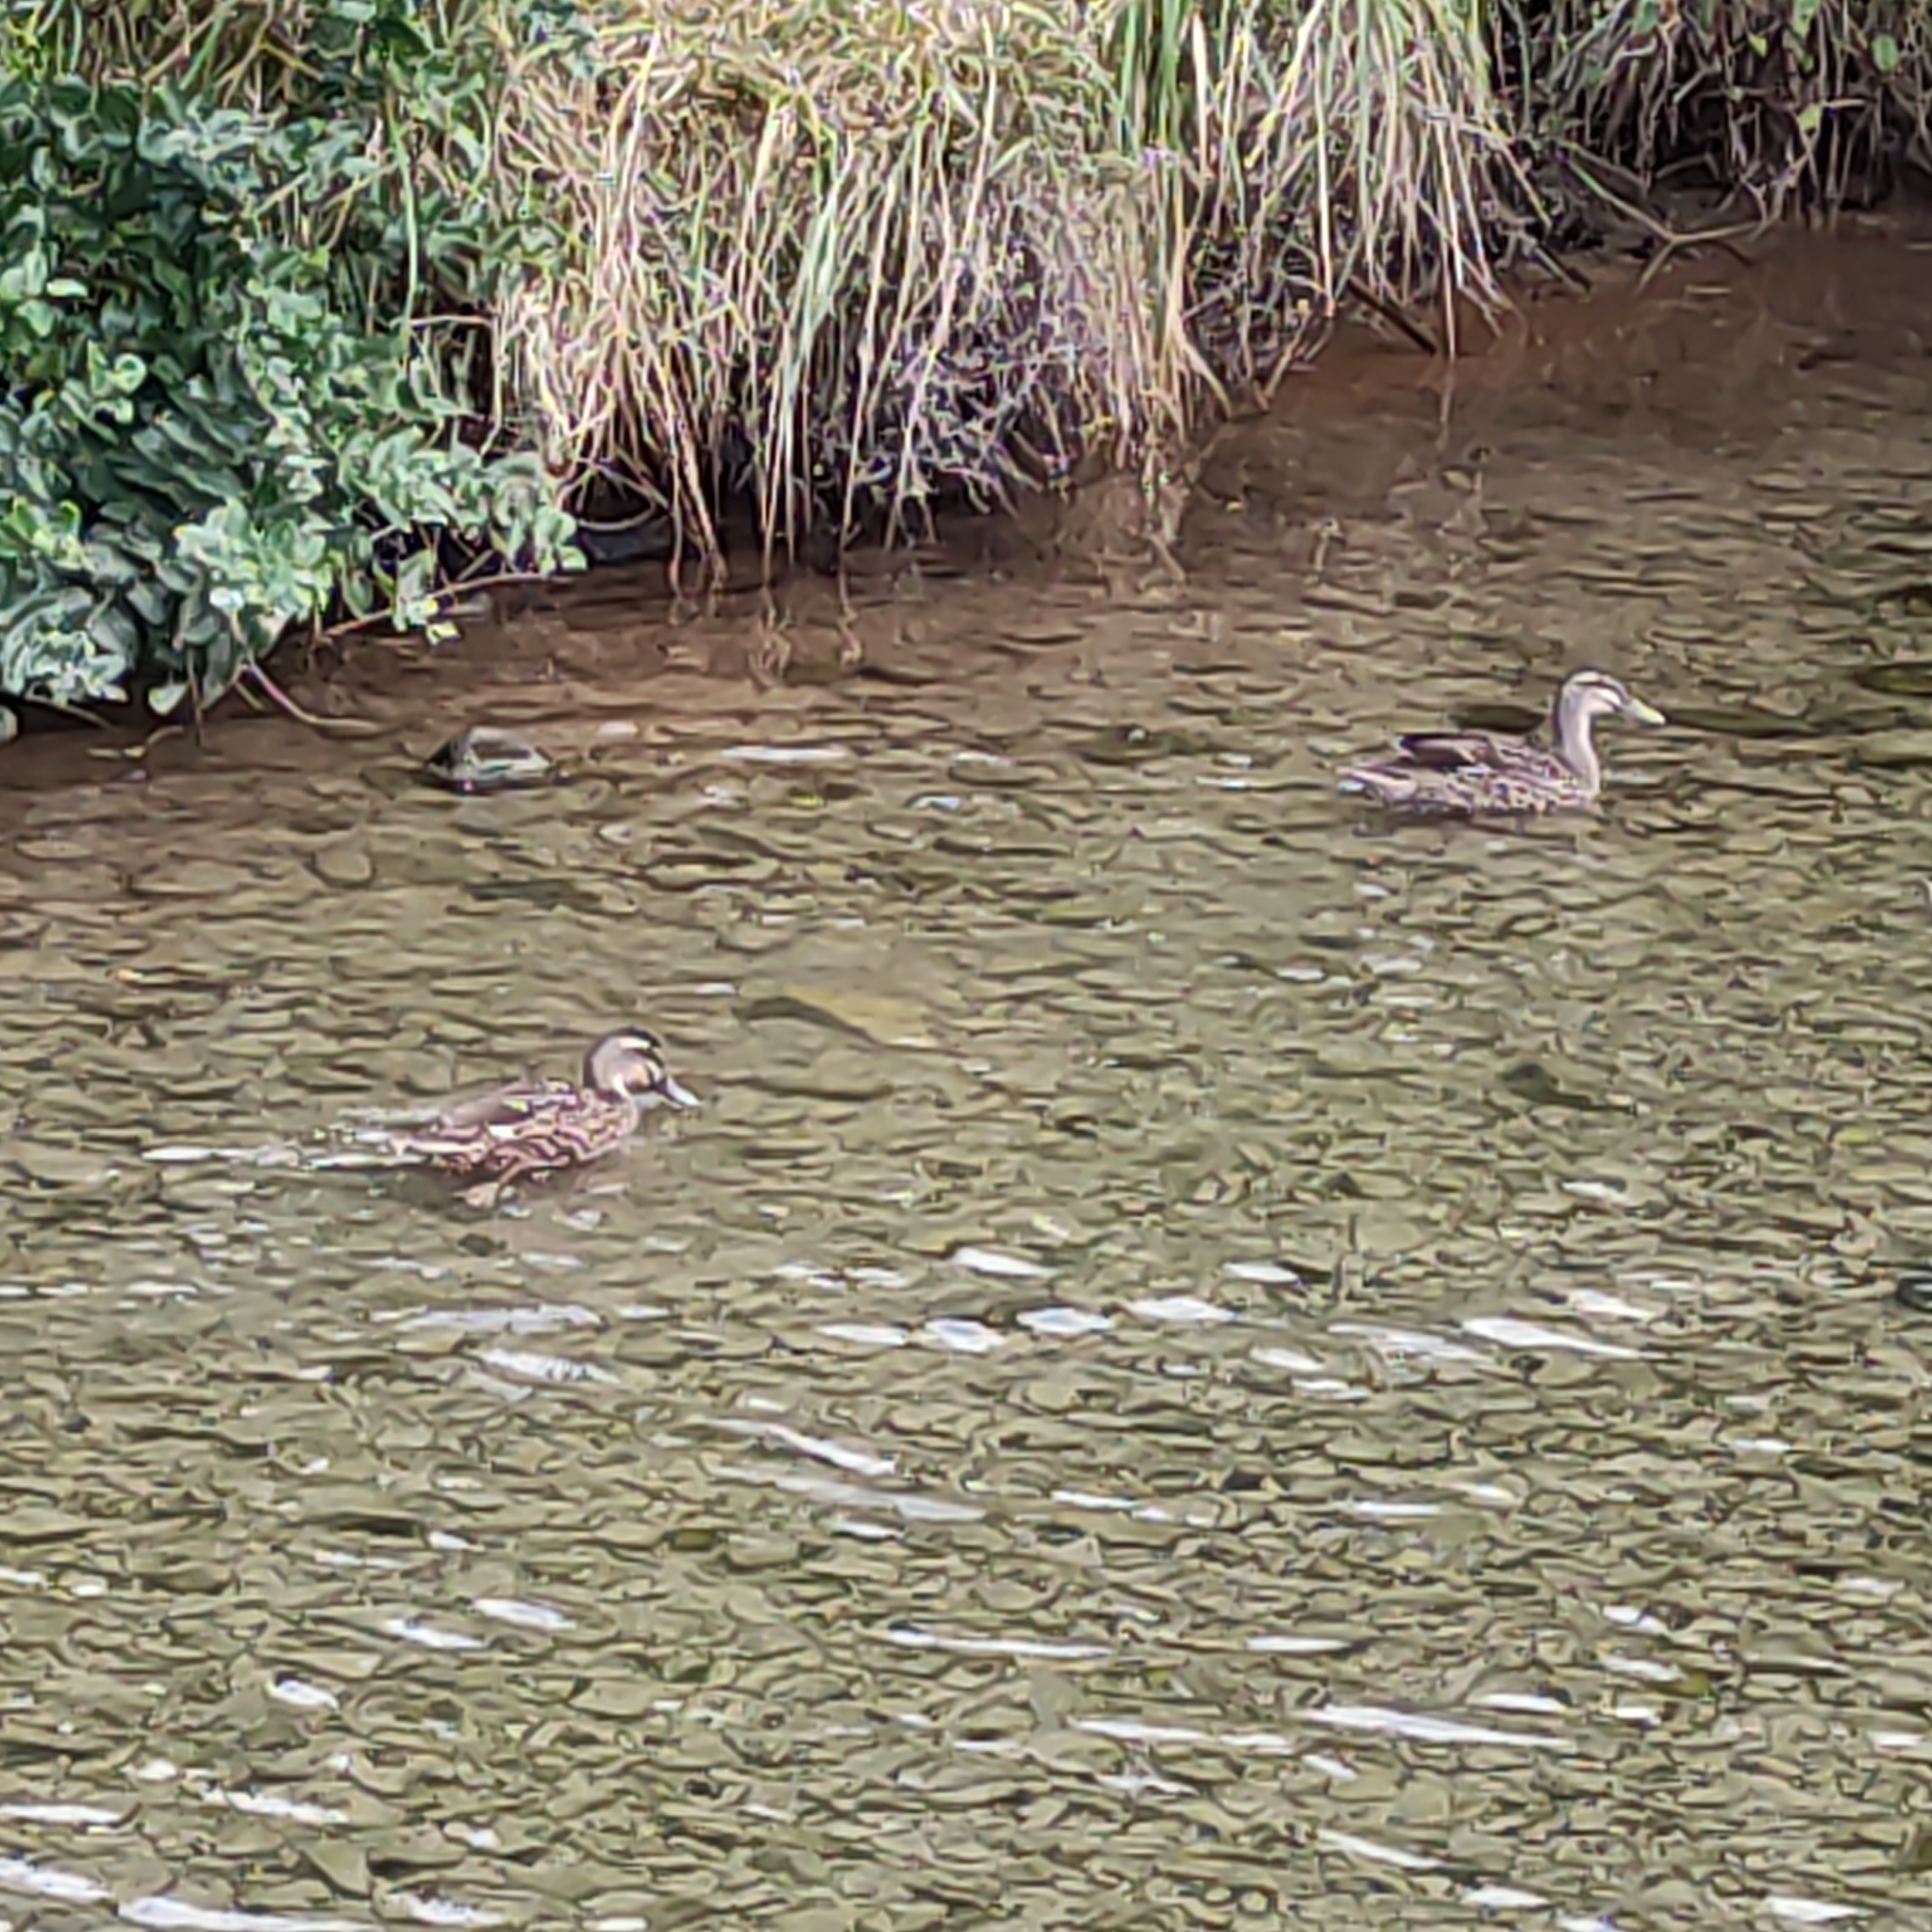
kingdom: Animalia
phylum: Chordata
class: Aves
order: Anseriformes
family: Anatidae
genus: Anas
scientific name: Anas
